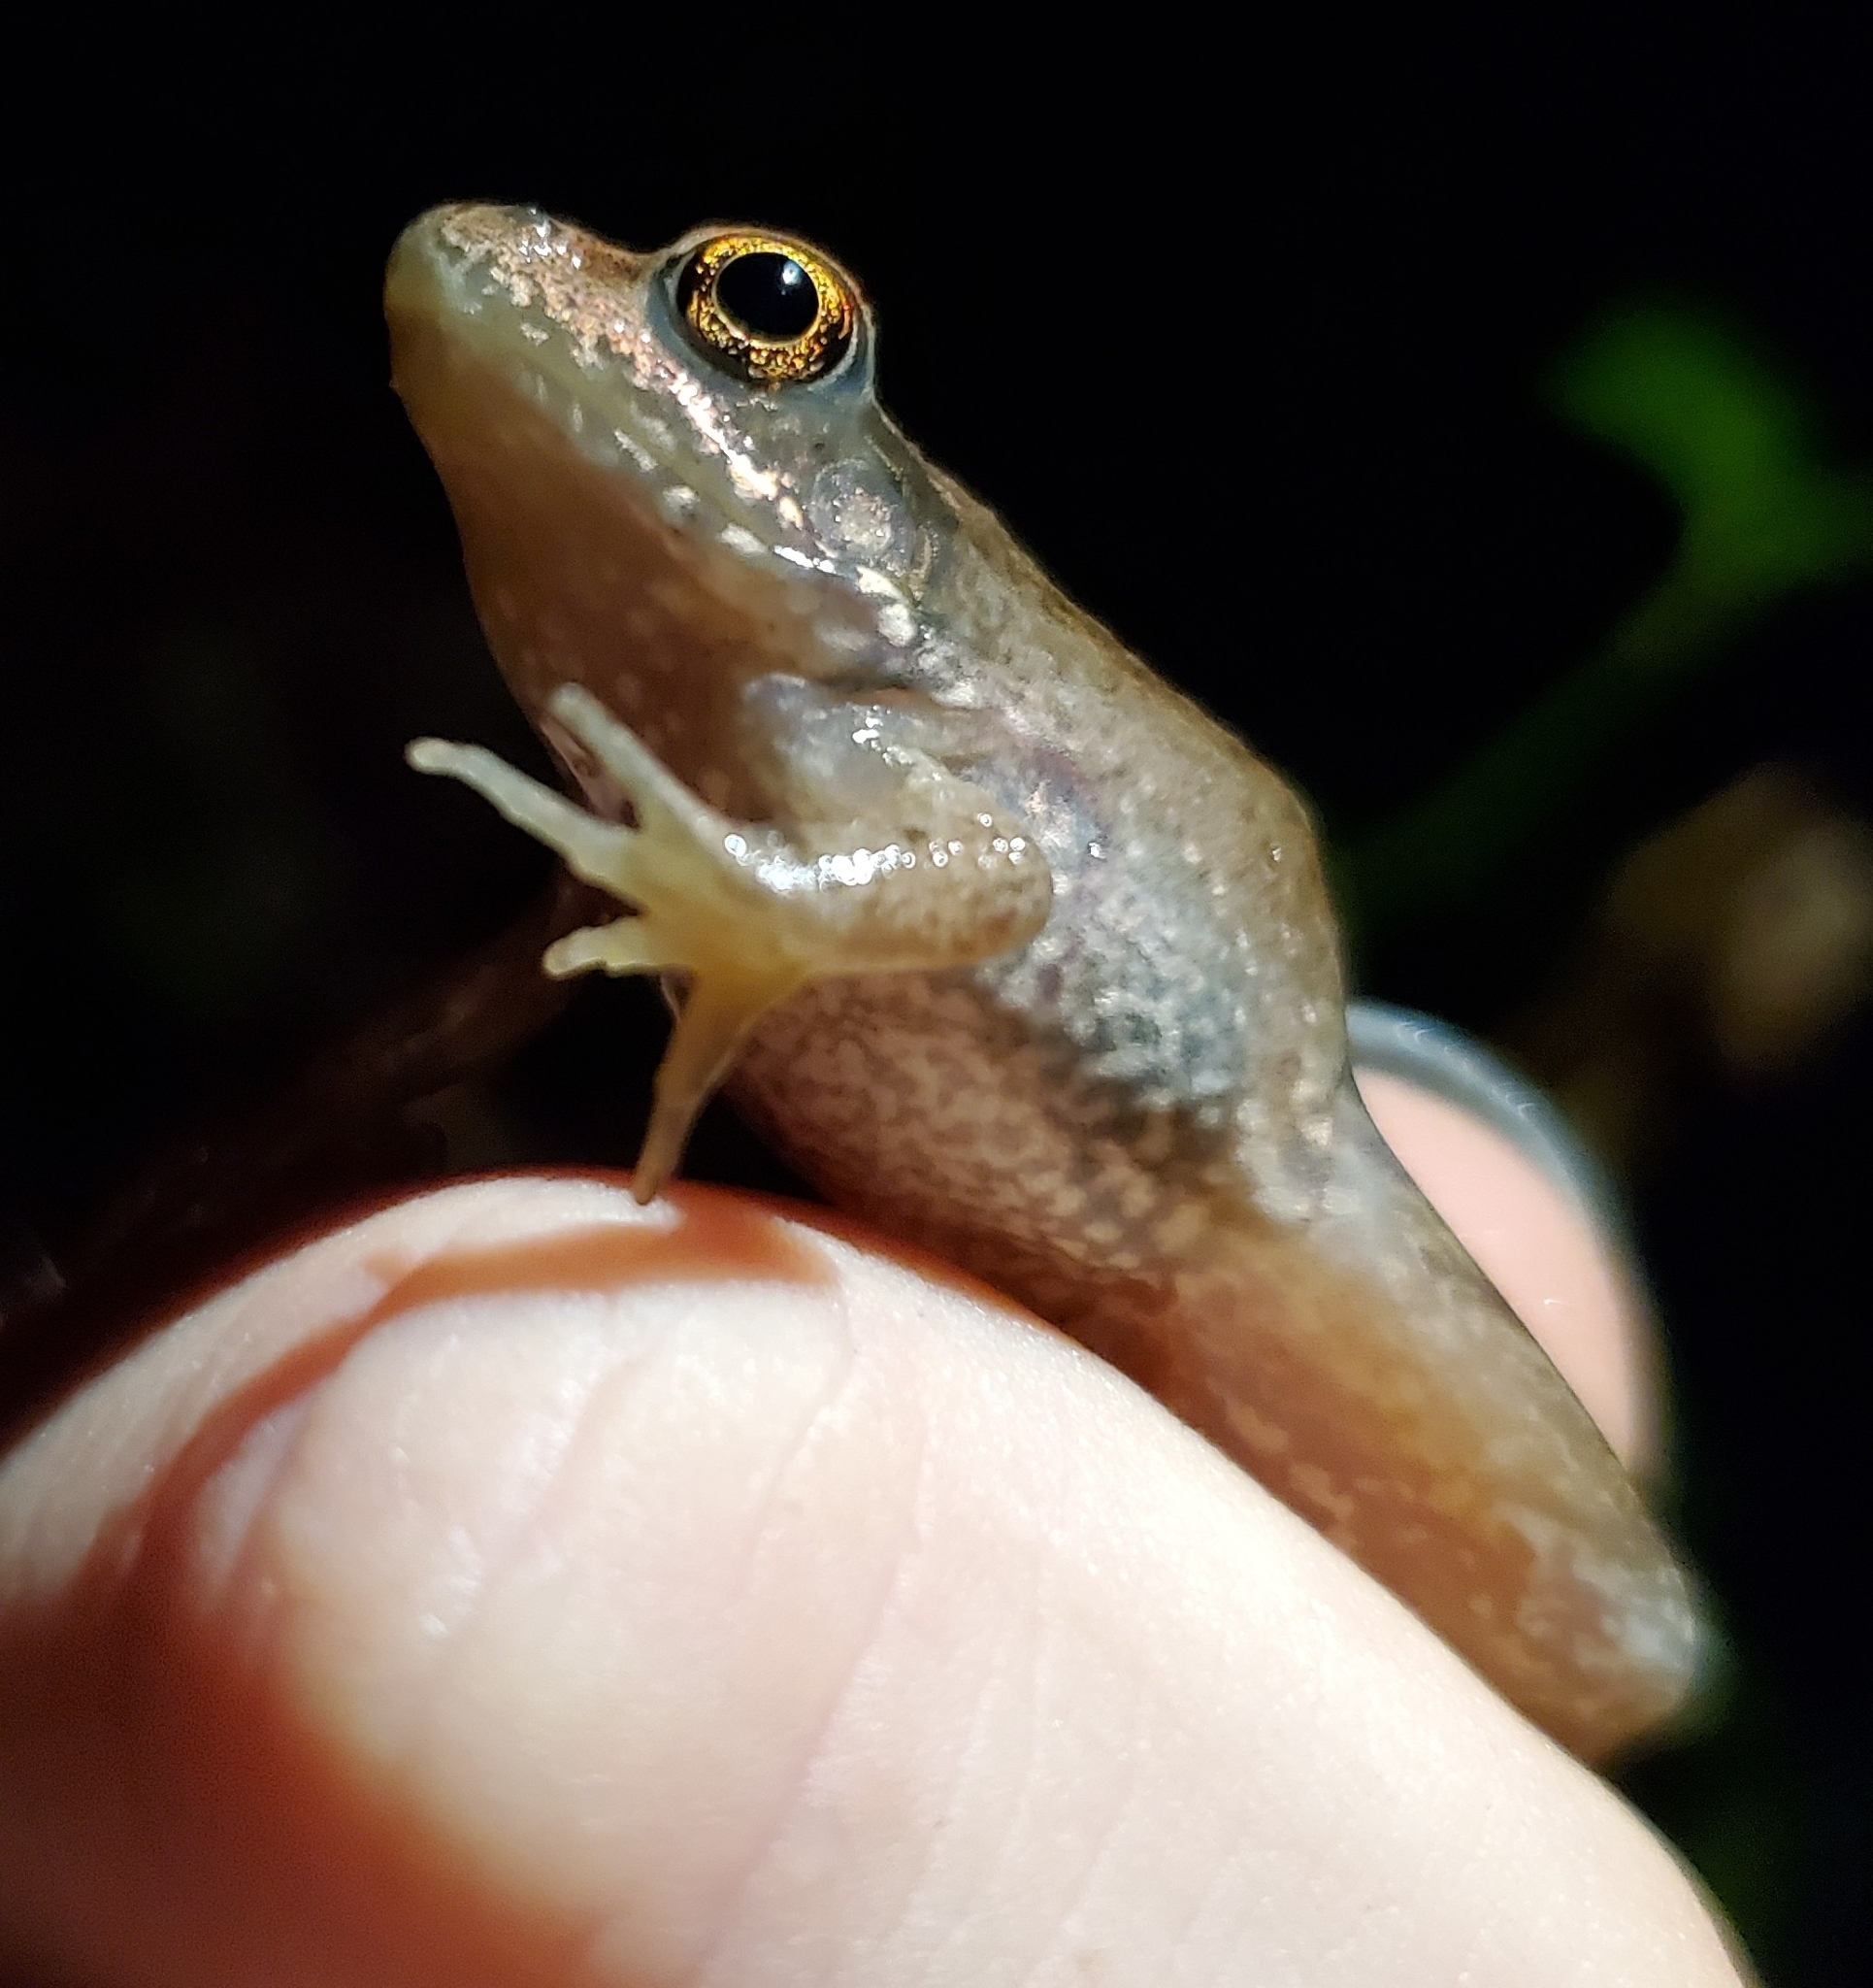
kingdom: Animalia
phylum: Chordata
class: Amphibia
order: Anura
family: Ranidae
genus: Lithobates
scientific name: Lithobates clamitans
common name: Green frog
